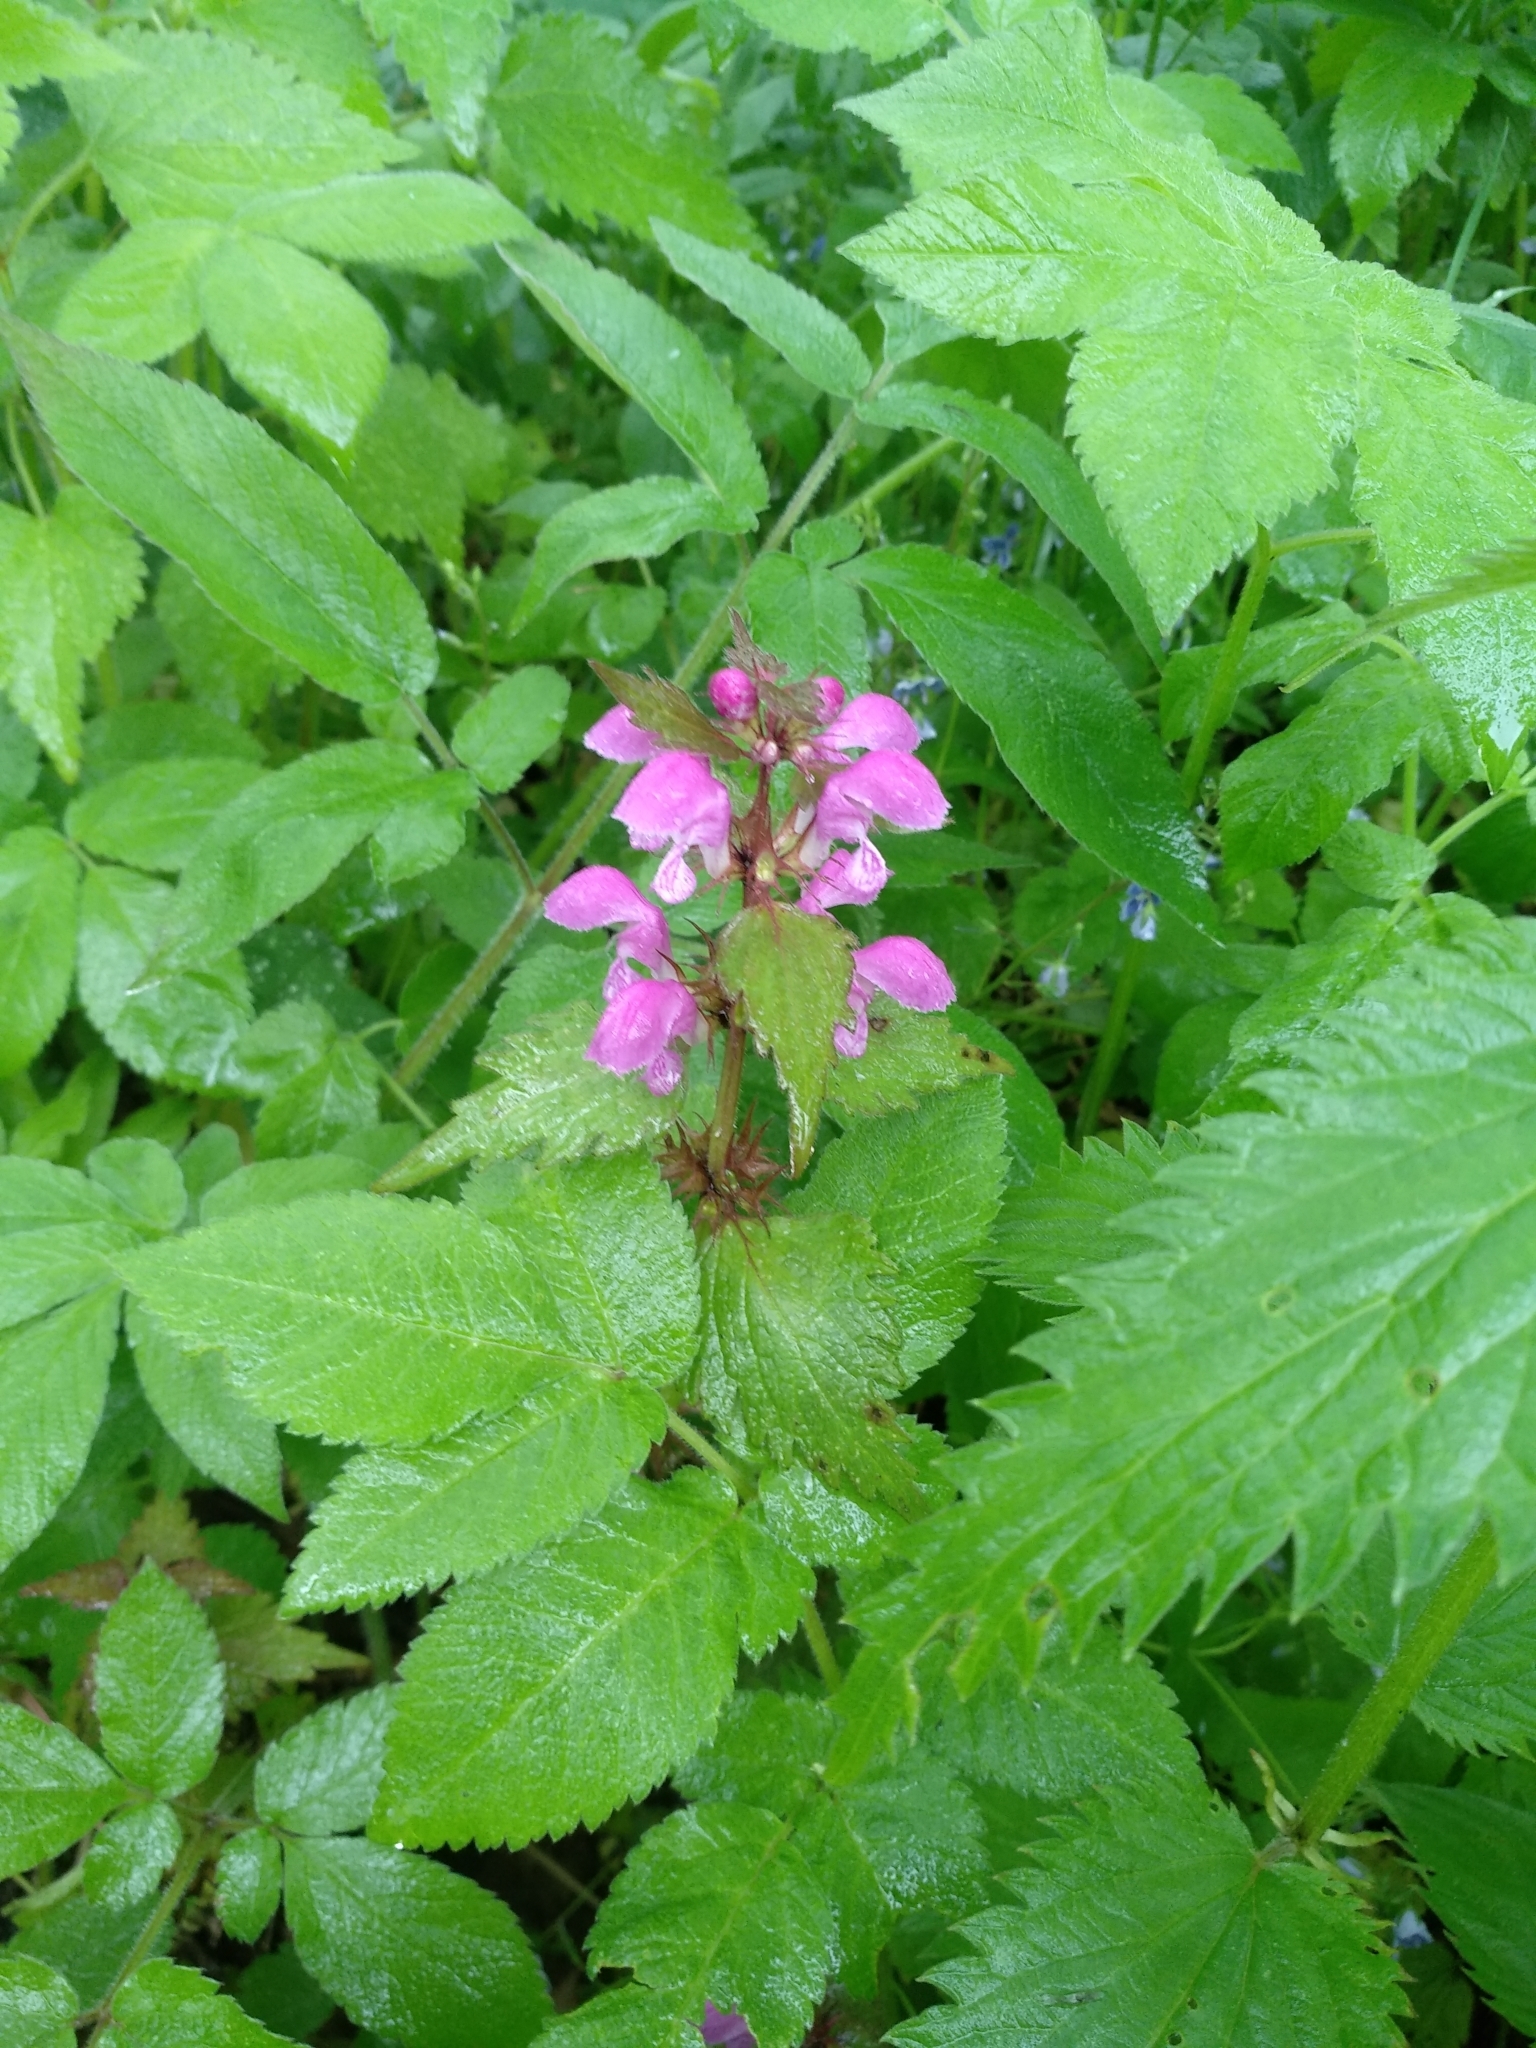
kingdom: Plantae
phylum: Tracheophyta
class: Magnoliopsida
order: Lamiales
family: Lamiaceae
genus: Lamium
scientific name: Lamium maculatum
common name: Spotted dead-nettle
